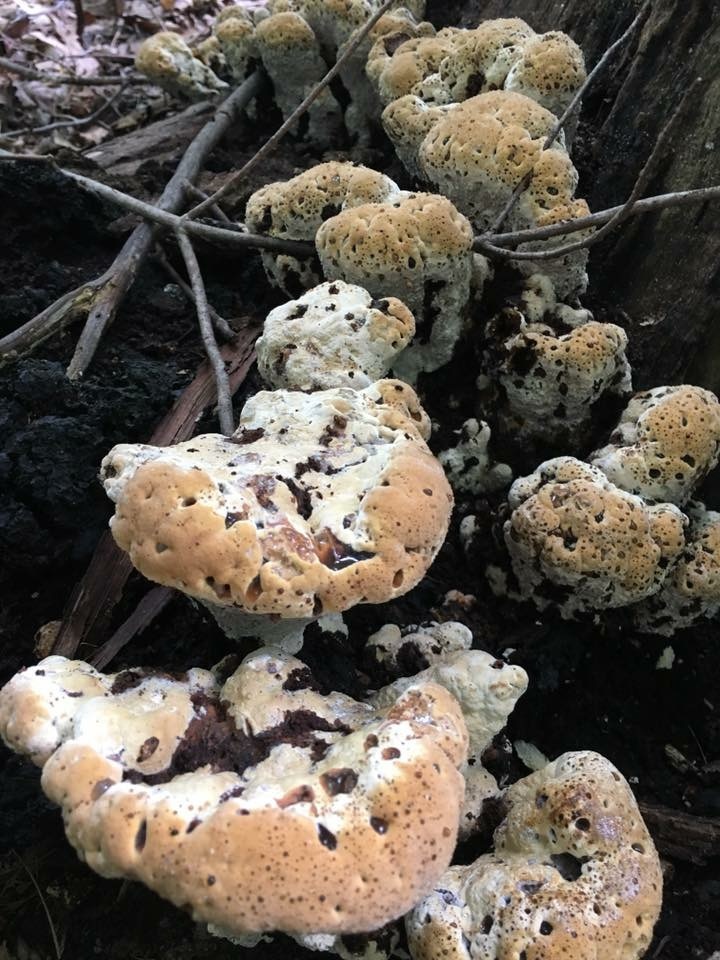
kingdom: Fungi
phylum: Basidiomycota
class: Agaricomycetes
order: Hymenochaetales
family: Hymenochaetaceae
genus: Pseudoinonotus
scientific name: Pseudoinonotus dryadeus
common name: Oak bracket
